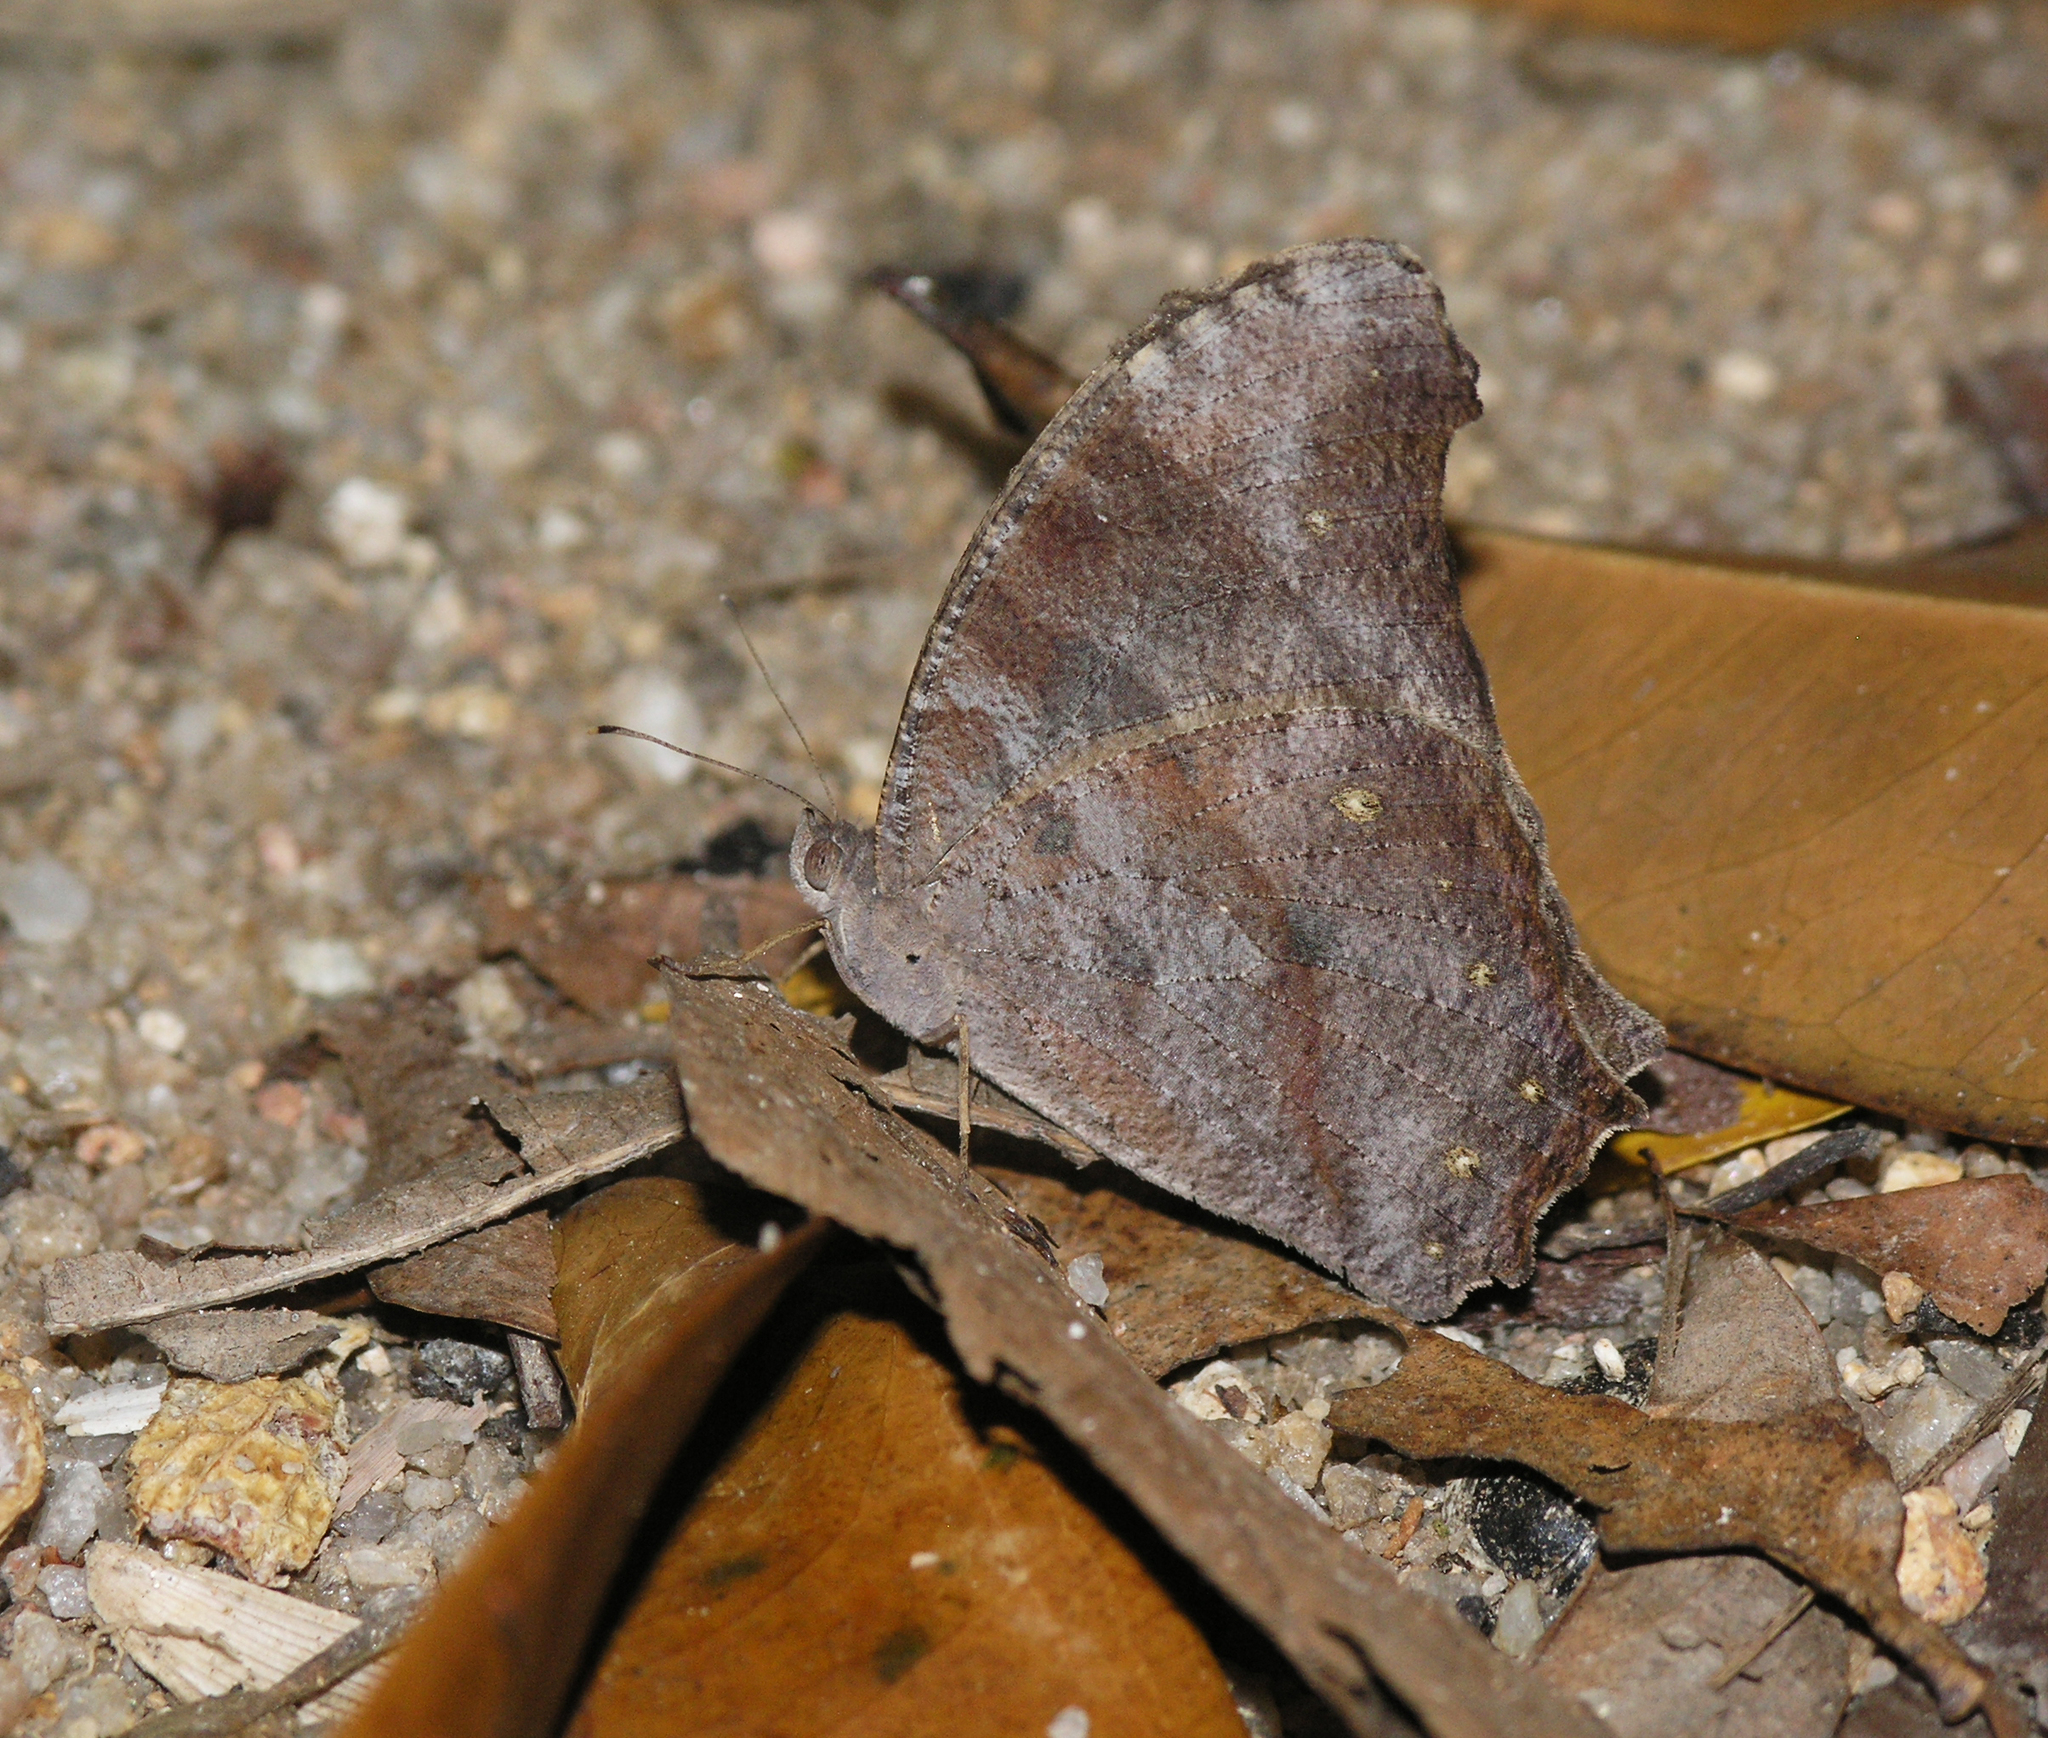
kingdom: Animalia
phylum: Arthropoda
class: Insecta
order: Lepidoptera
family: Nymphalidae
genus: Melanitis
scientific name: Melanitis leda
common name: Twilight brown
